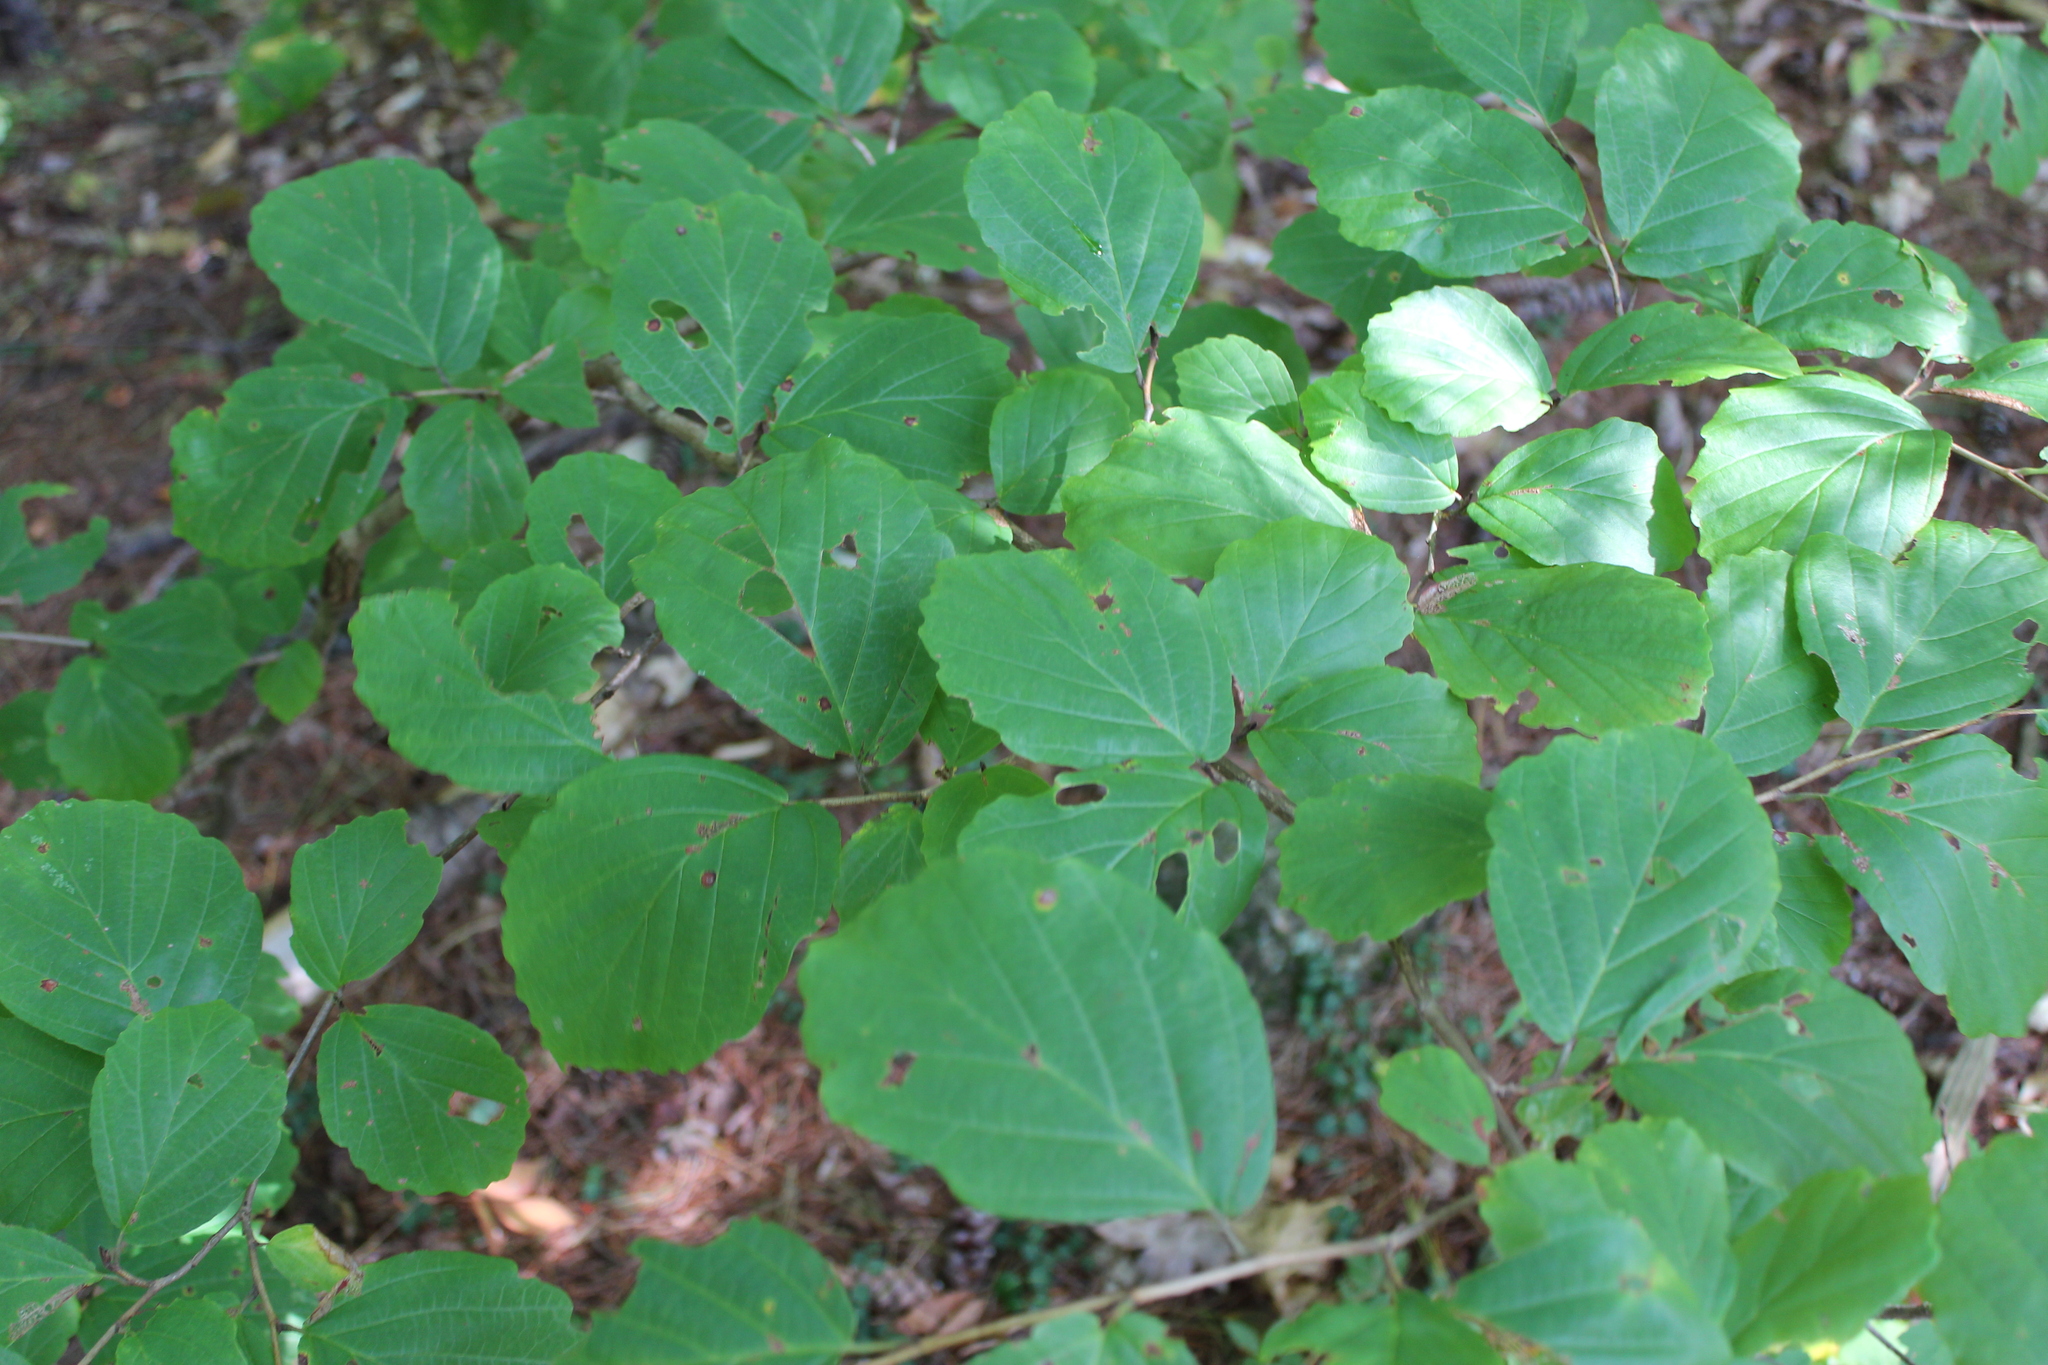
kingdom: Plantae
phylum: Tracheophyta
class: Magnoliopsida
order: Saxifragales
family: Hamamelidaceae
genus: Hamamelis
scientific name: Hamamelis virginiana
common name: Witch-hazel
